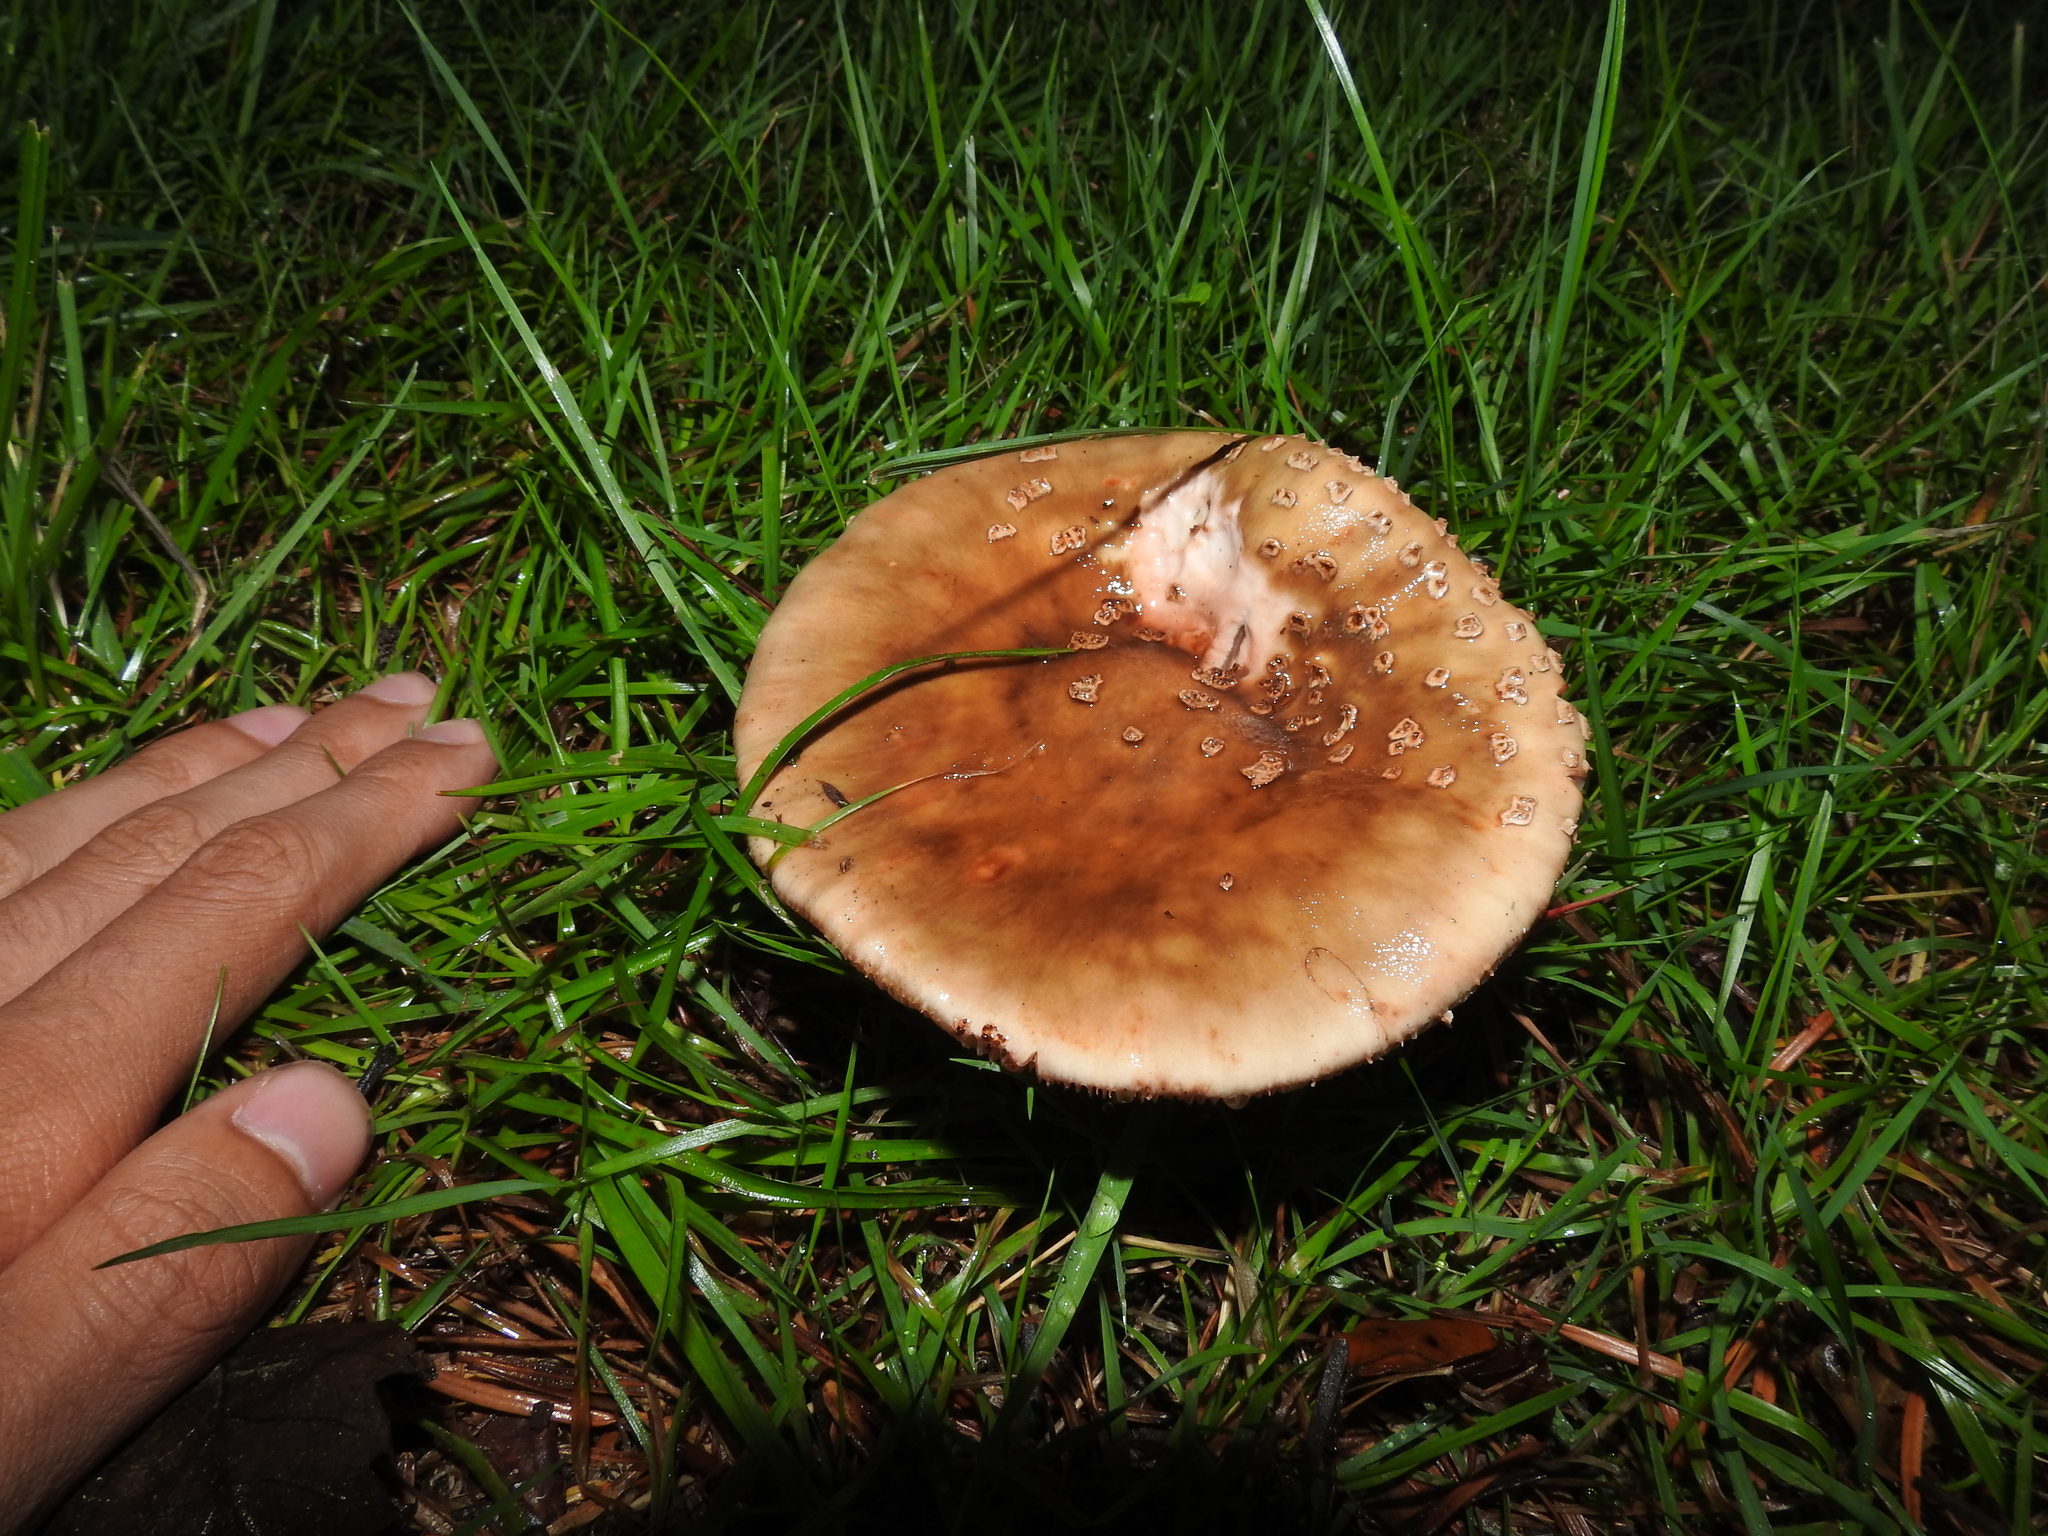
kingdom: Fungi
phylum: Basidiomycota
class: Agaricomycetes
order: Agaricales
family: Amanitaceae
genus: Amanita
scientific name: Amanita rubescens
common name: Blusher
